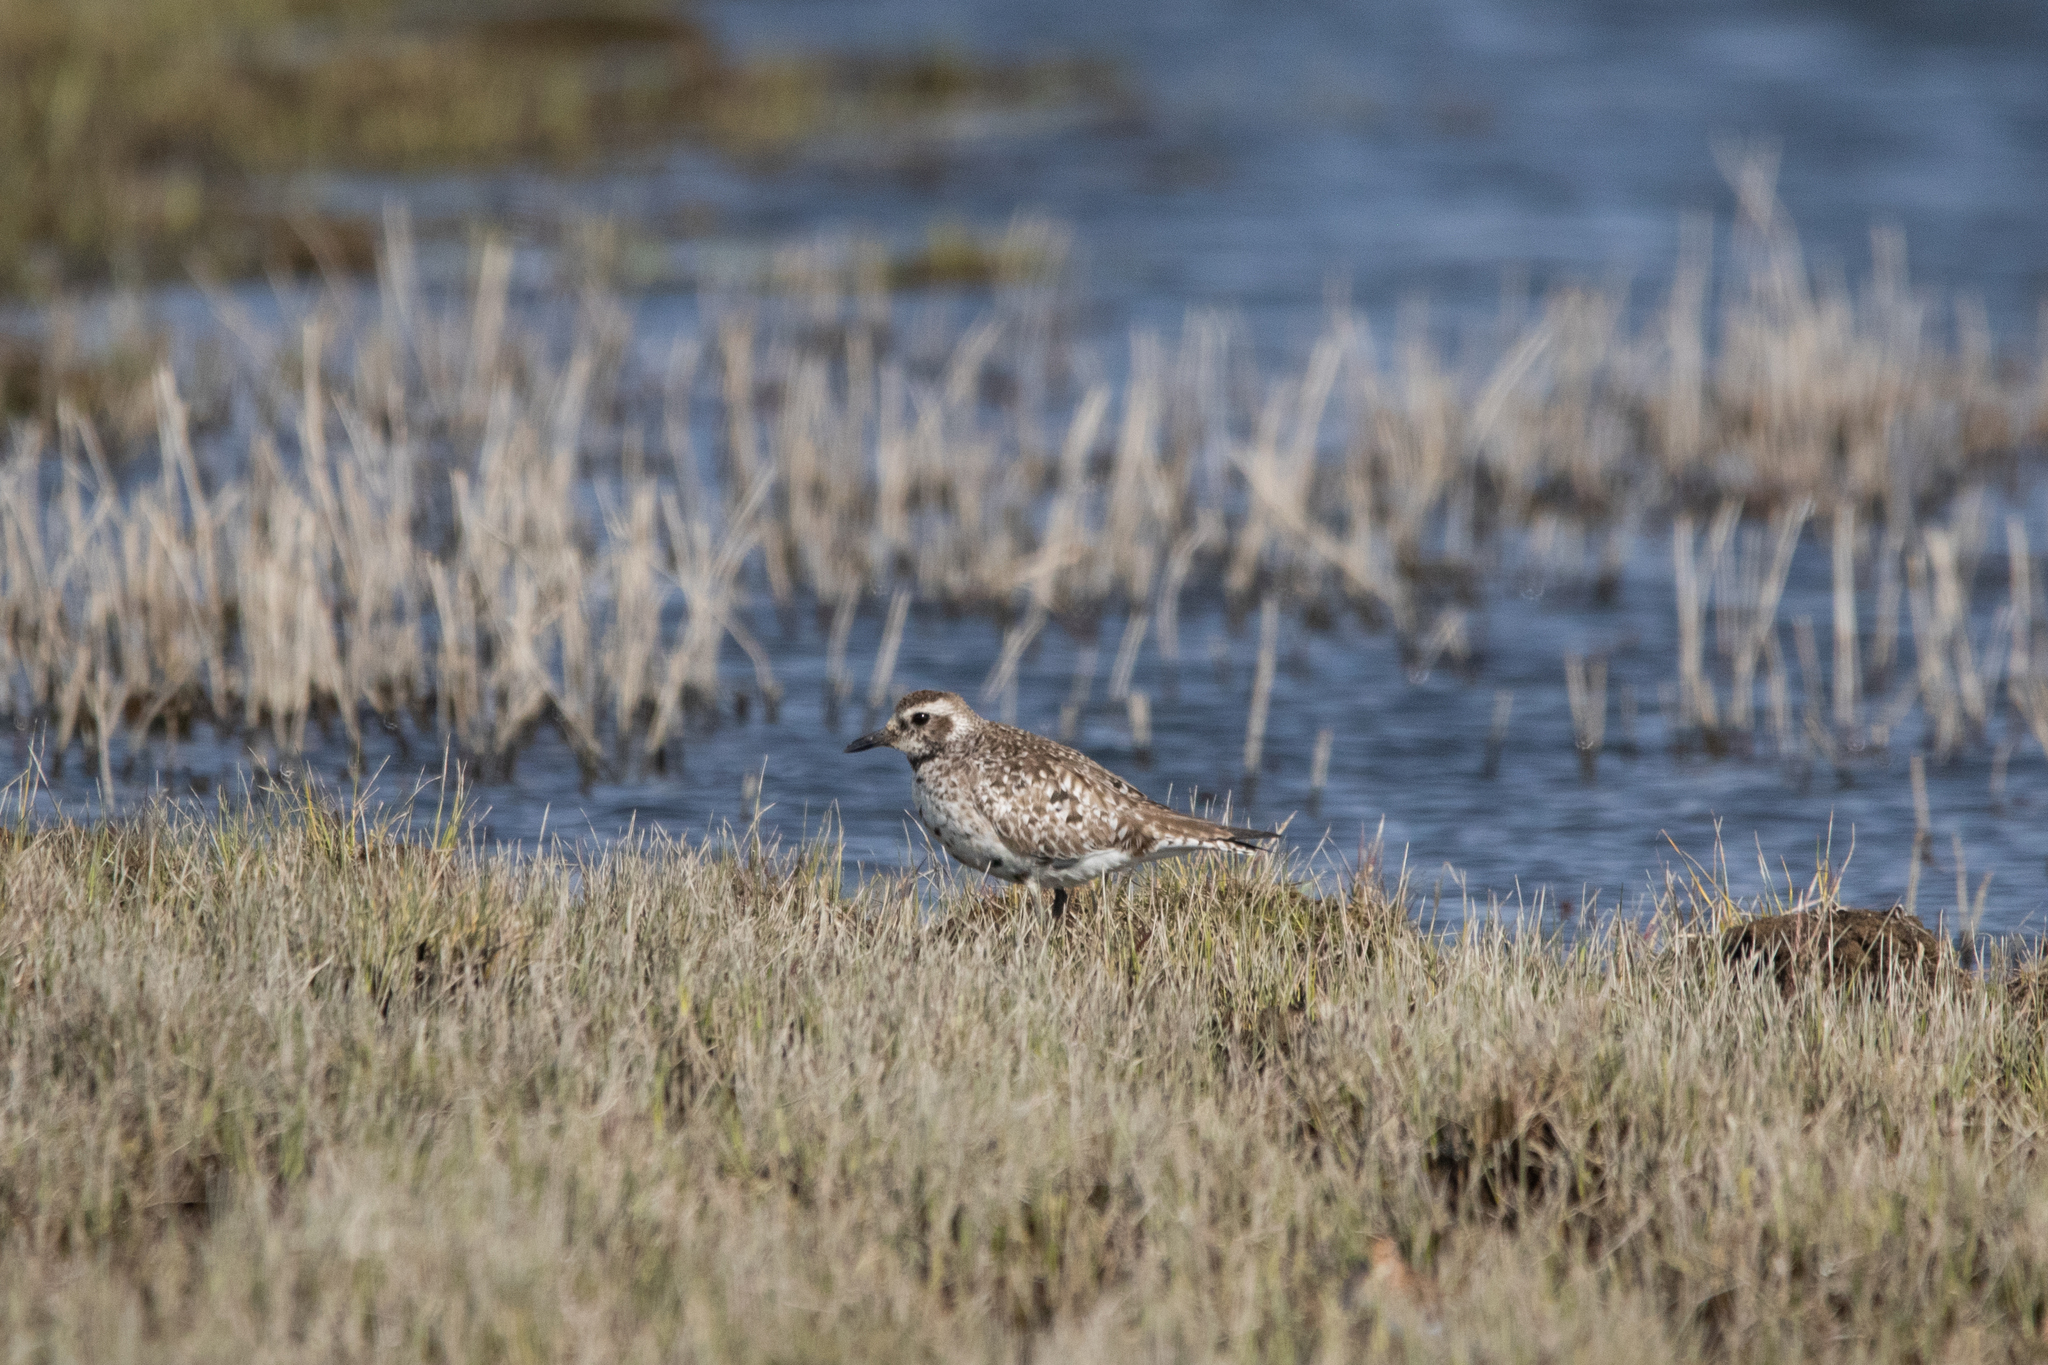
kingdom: Animalia
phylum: Chordata
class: Aves
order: Charadriiformes
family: Charadriidae
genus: Pluvialis
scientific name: Pluvialis squatarola
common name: Grey plover
